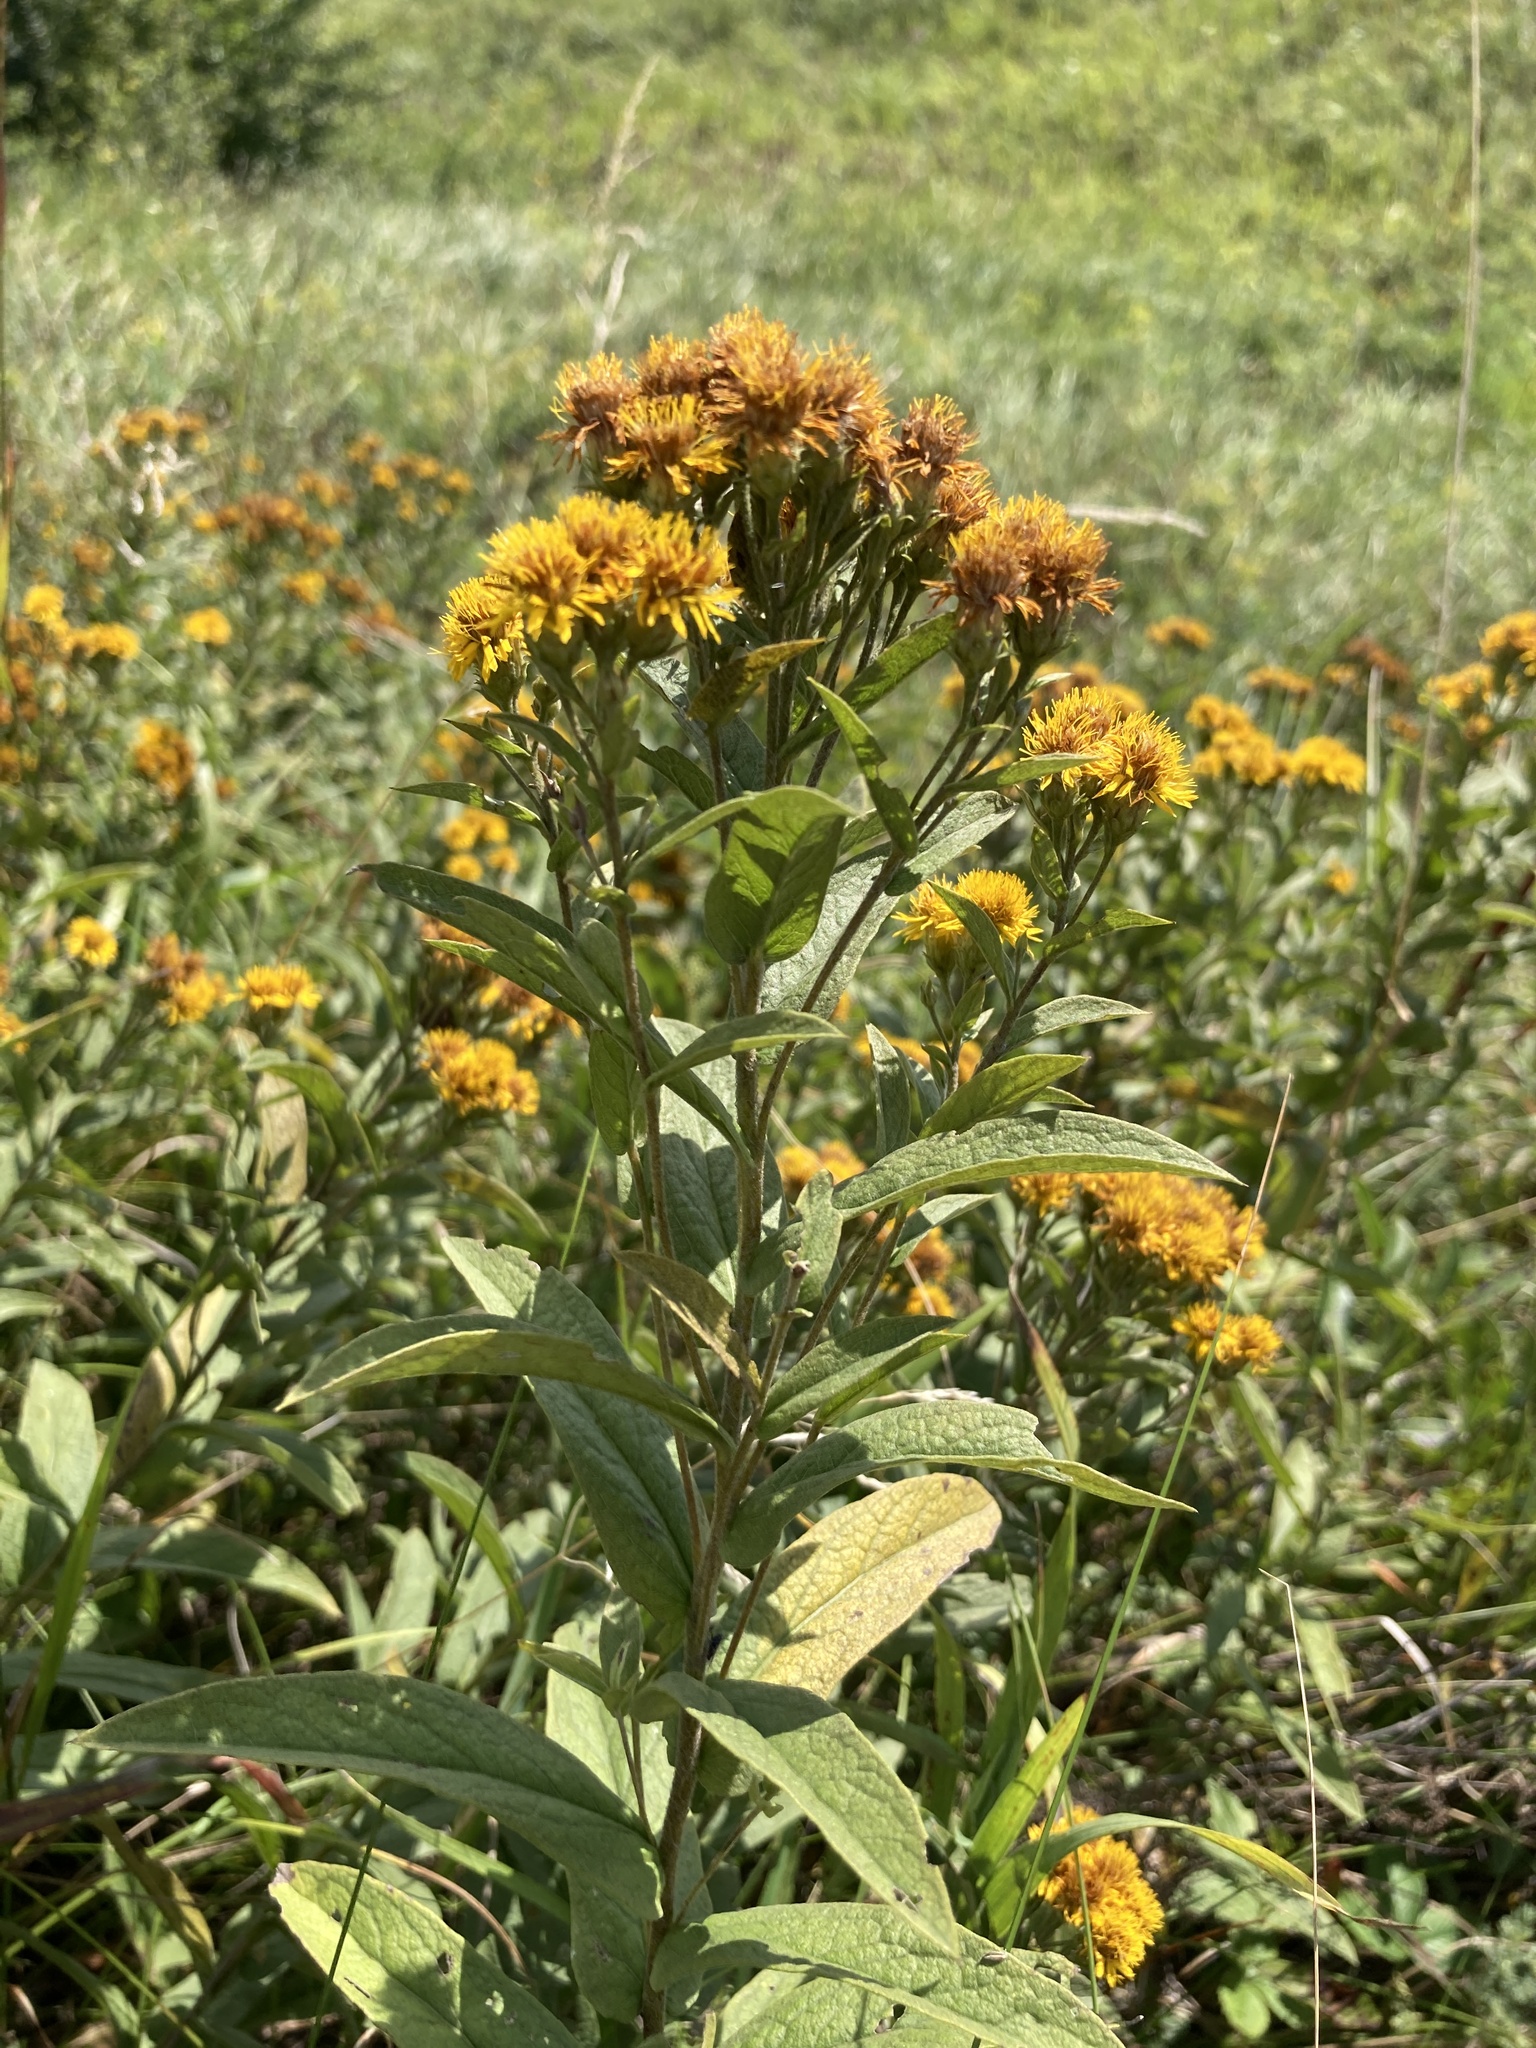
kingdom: Plantae
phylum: Tracheophyta
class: Magnoliopsida
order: Asterales
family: Asteraceae
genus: Pentanema
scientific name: Pentanema germanicum
